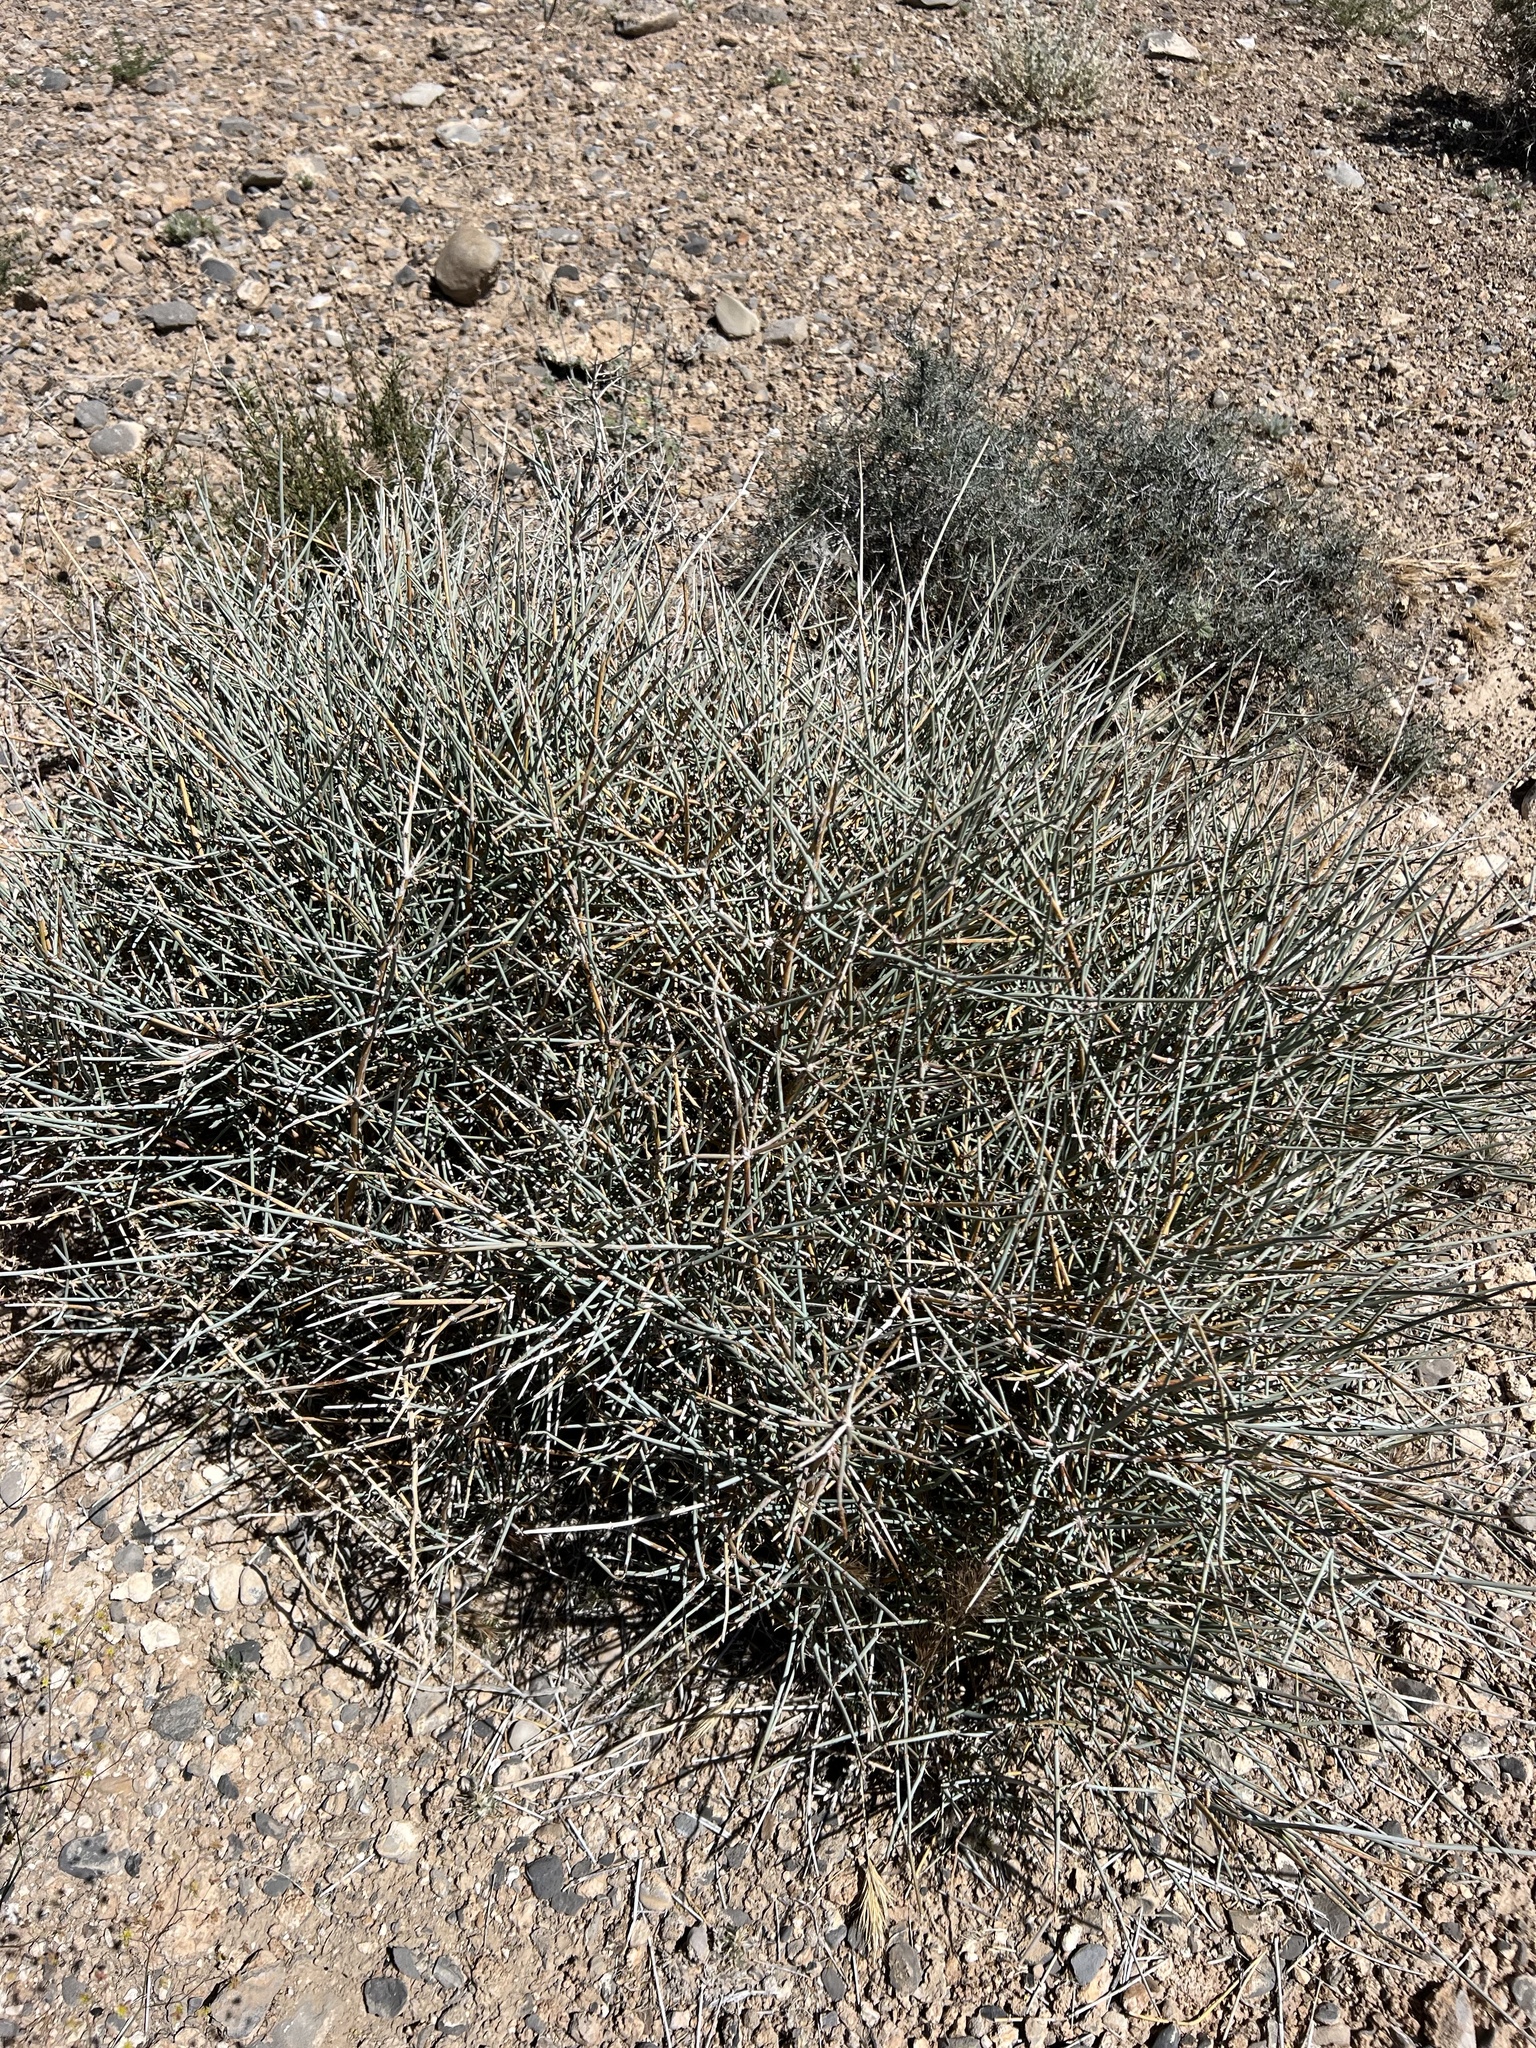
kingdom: Plantae
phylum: Tracheophyta
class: Gnetopsida
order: Ephedrales
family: Ephedraceae
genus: Ephedra
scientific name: Ephedra nevadensis
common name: Gray ephedra
